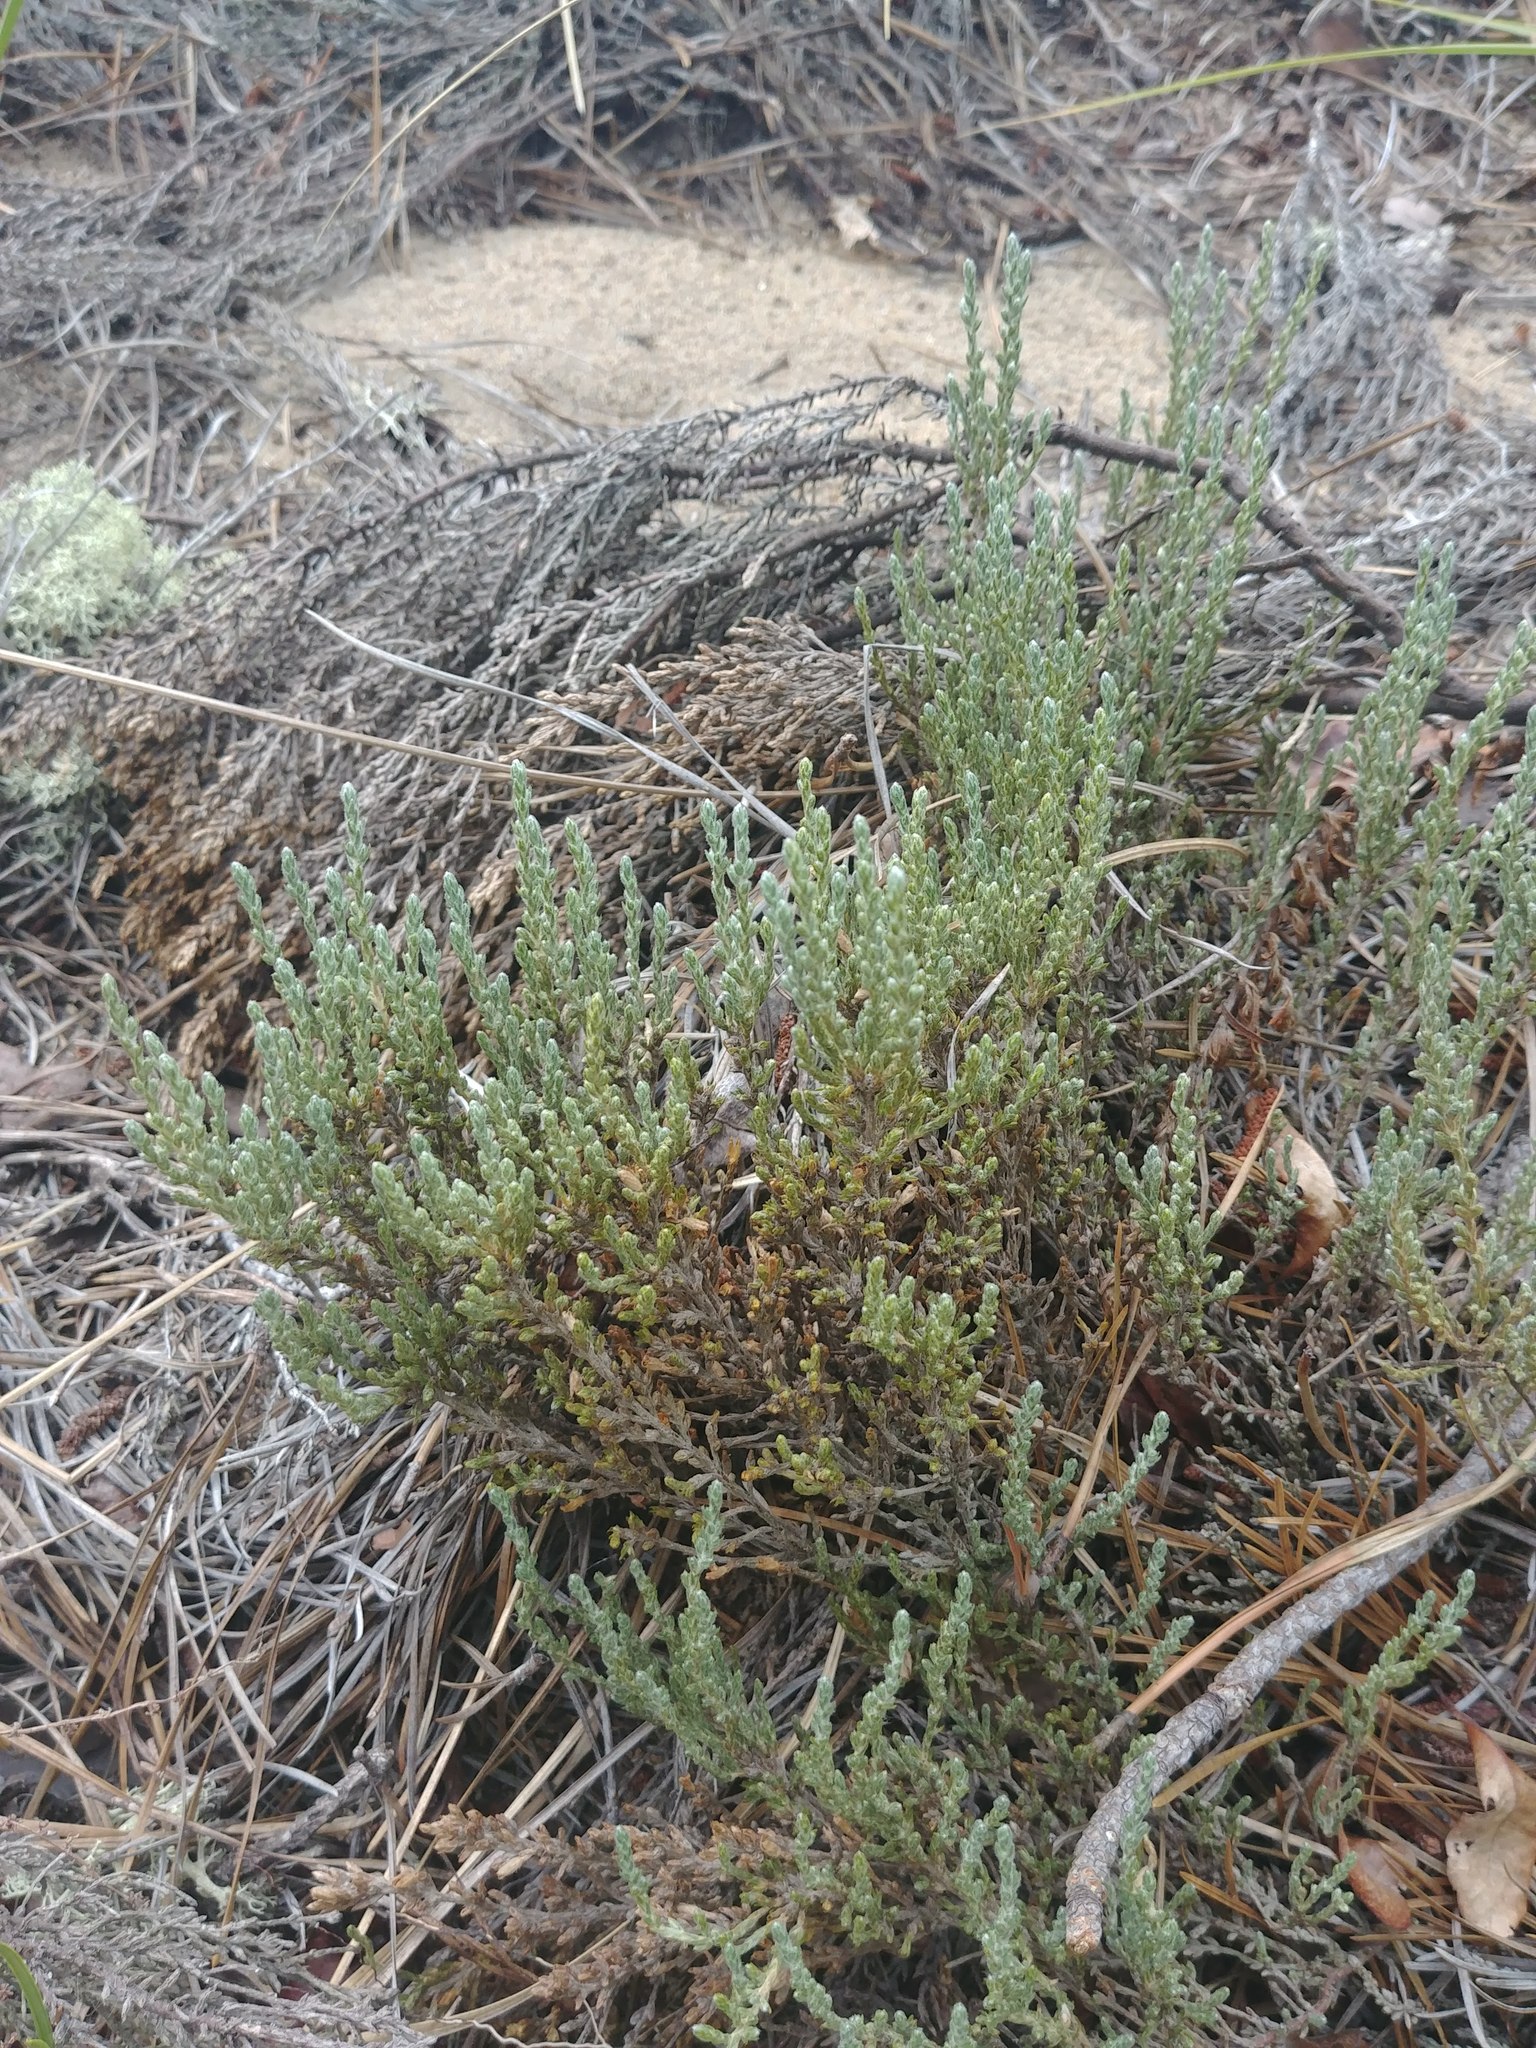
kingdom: Plantae
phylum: Tracheophyta
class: Magnoliopsida
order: Malvales
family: Cistaceae
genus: Hudsonia
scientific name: Hudsonia tomentosa
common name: Beach-heath
